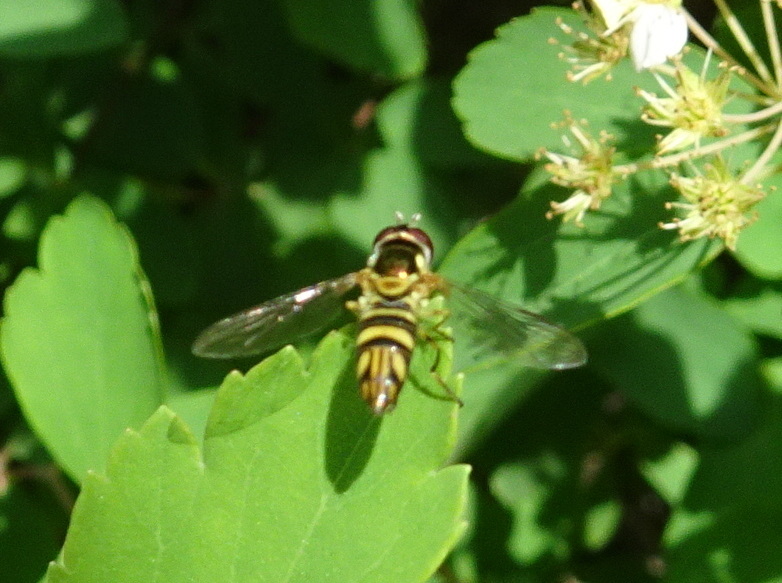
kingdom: Animalia
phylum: Arthropoda
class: Insecta
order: Diptera
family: Syrphidae
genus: Allograpta
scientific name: Allograpta obliqua
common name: Common oblique syrphid
